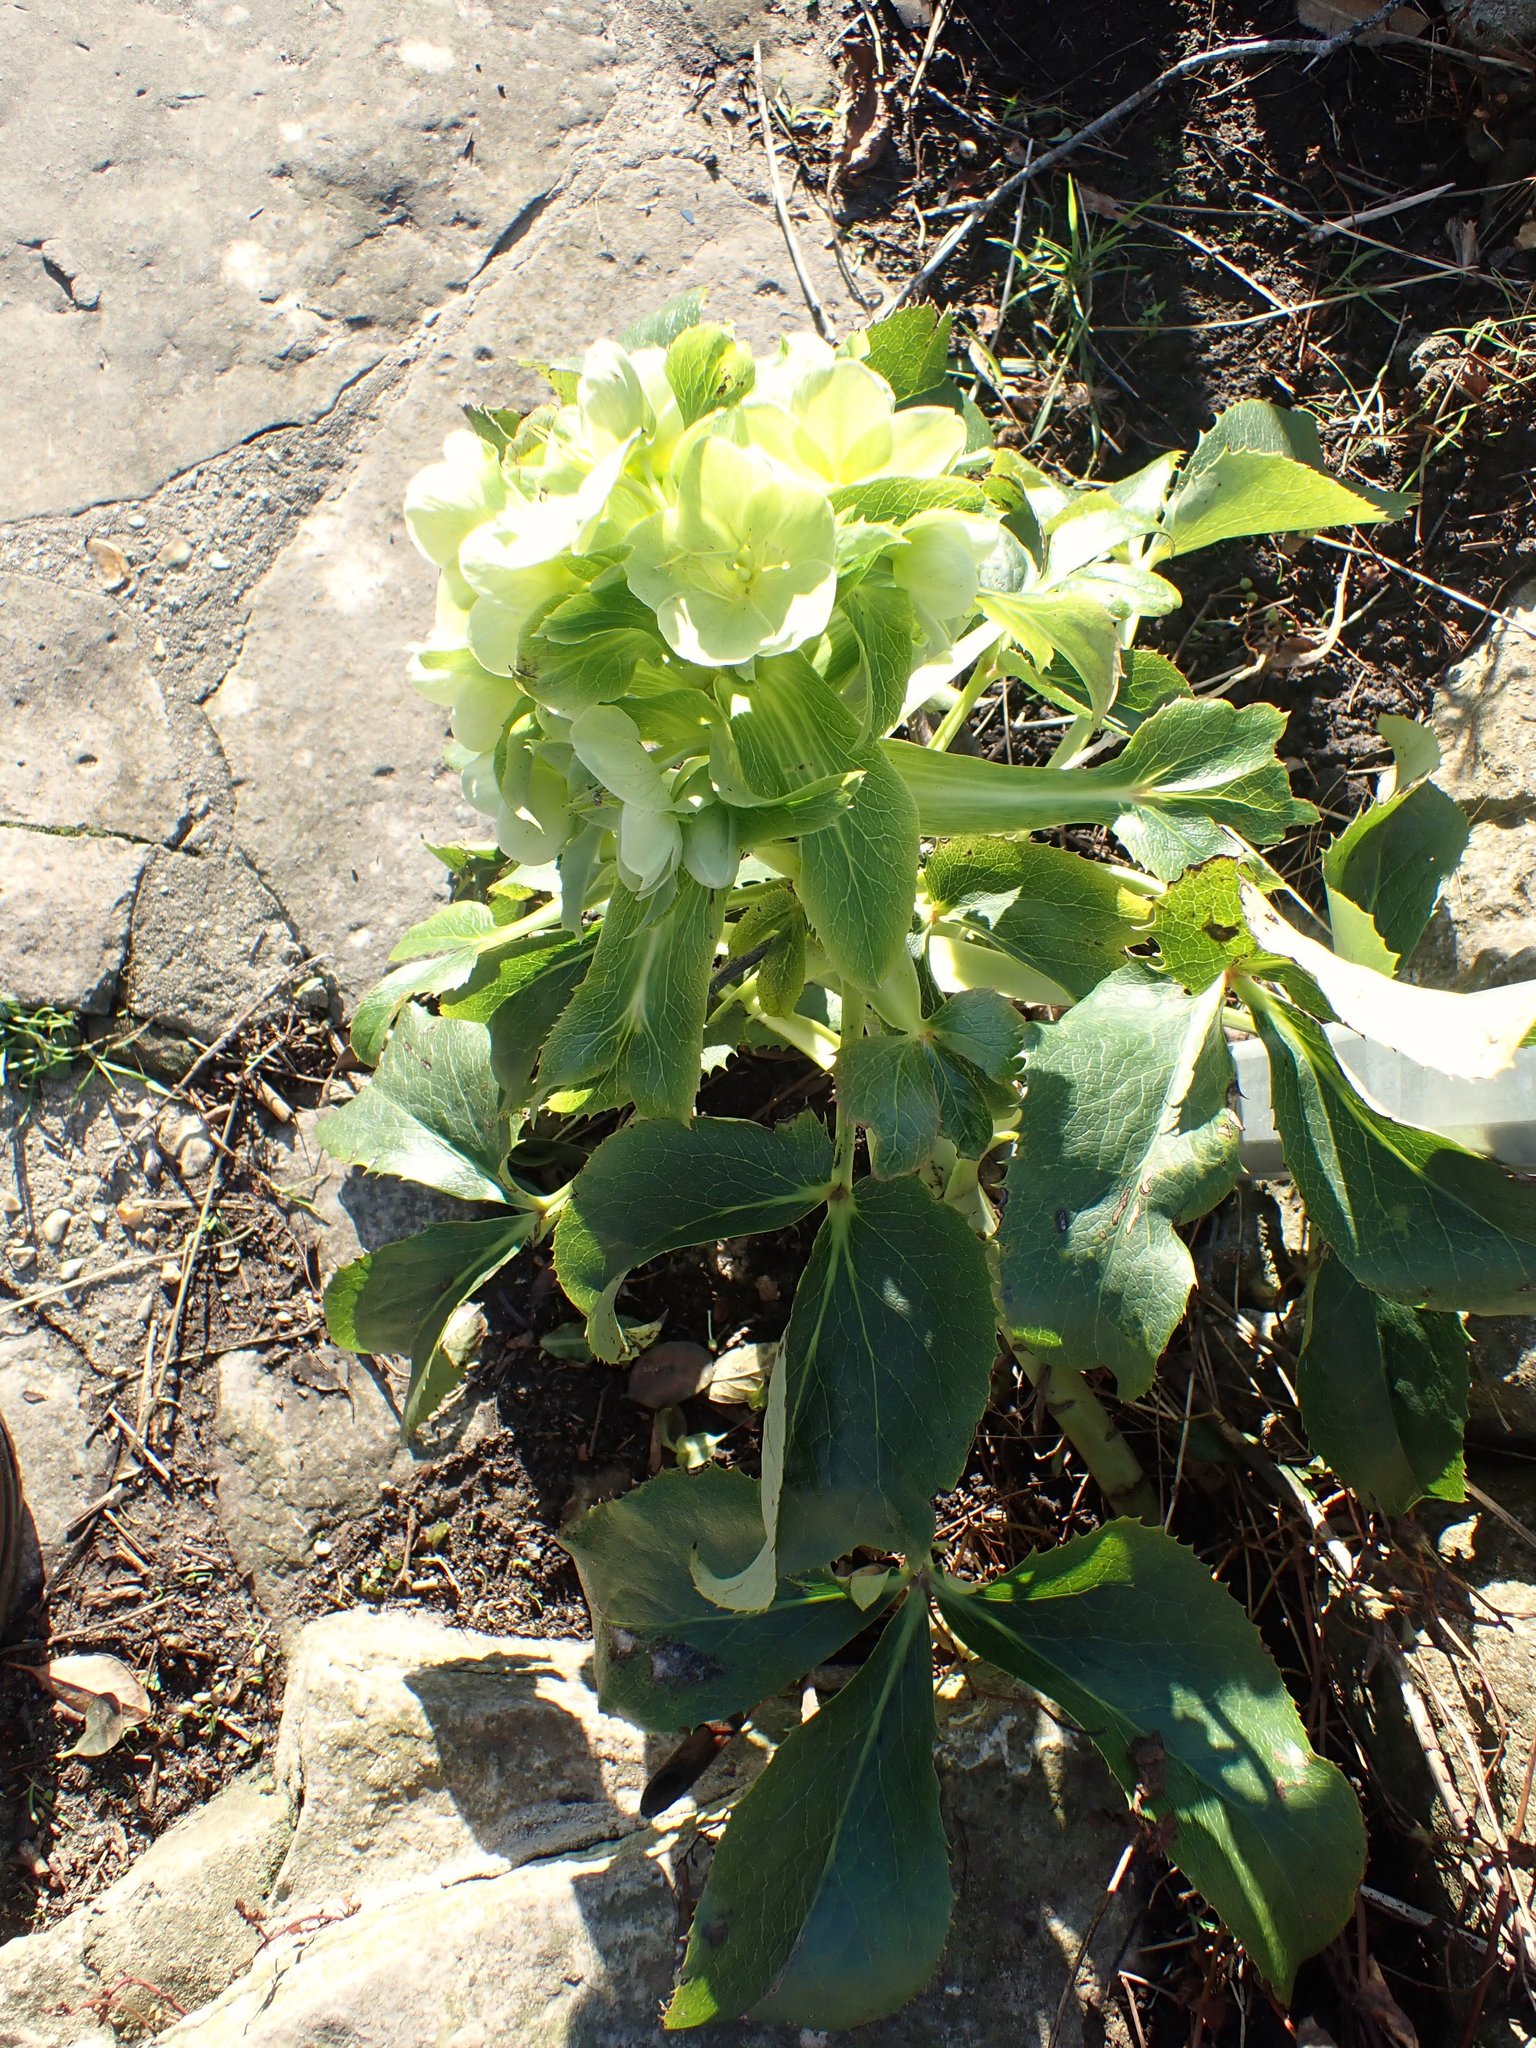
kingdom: Plantae
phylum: Tracheophyta
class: Magnoliopsida
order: Ranunculales
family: Ranunculaceae
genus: Helleborus
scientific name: Helleborus argutifolius
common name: Corsican hellebore
